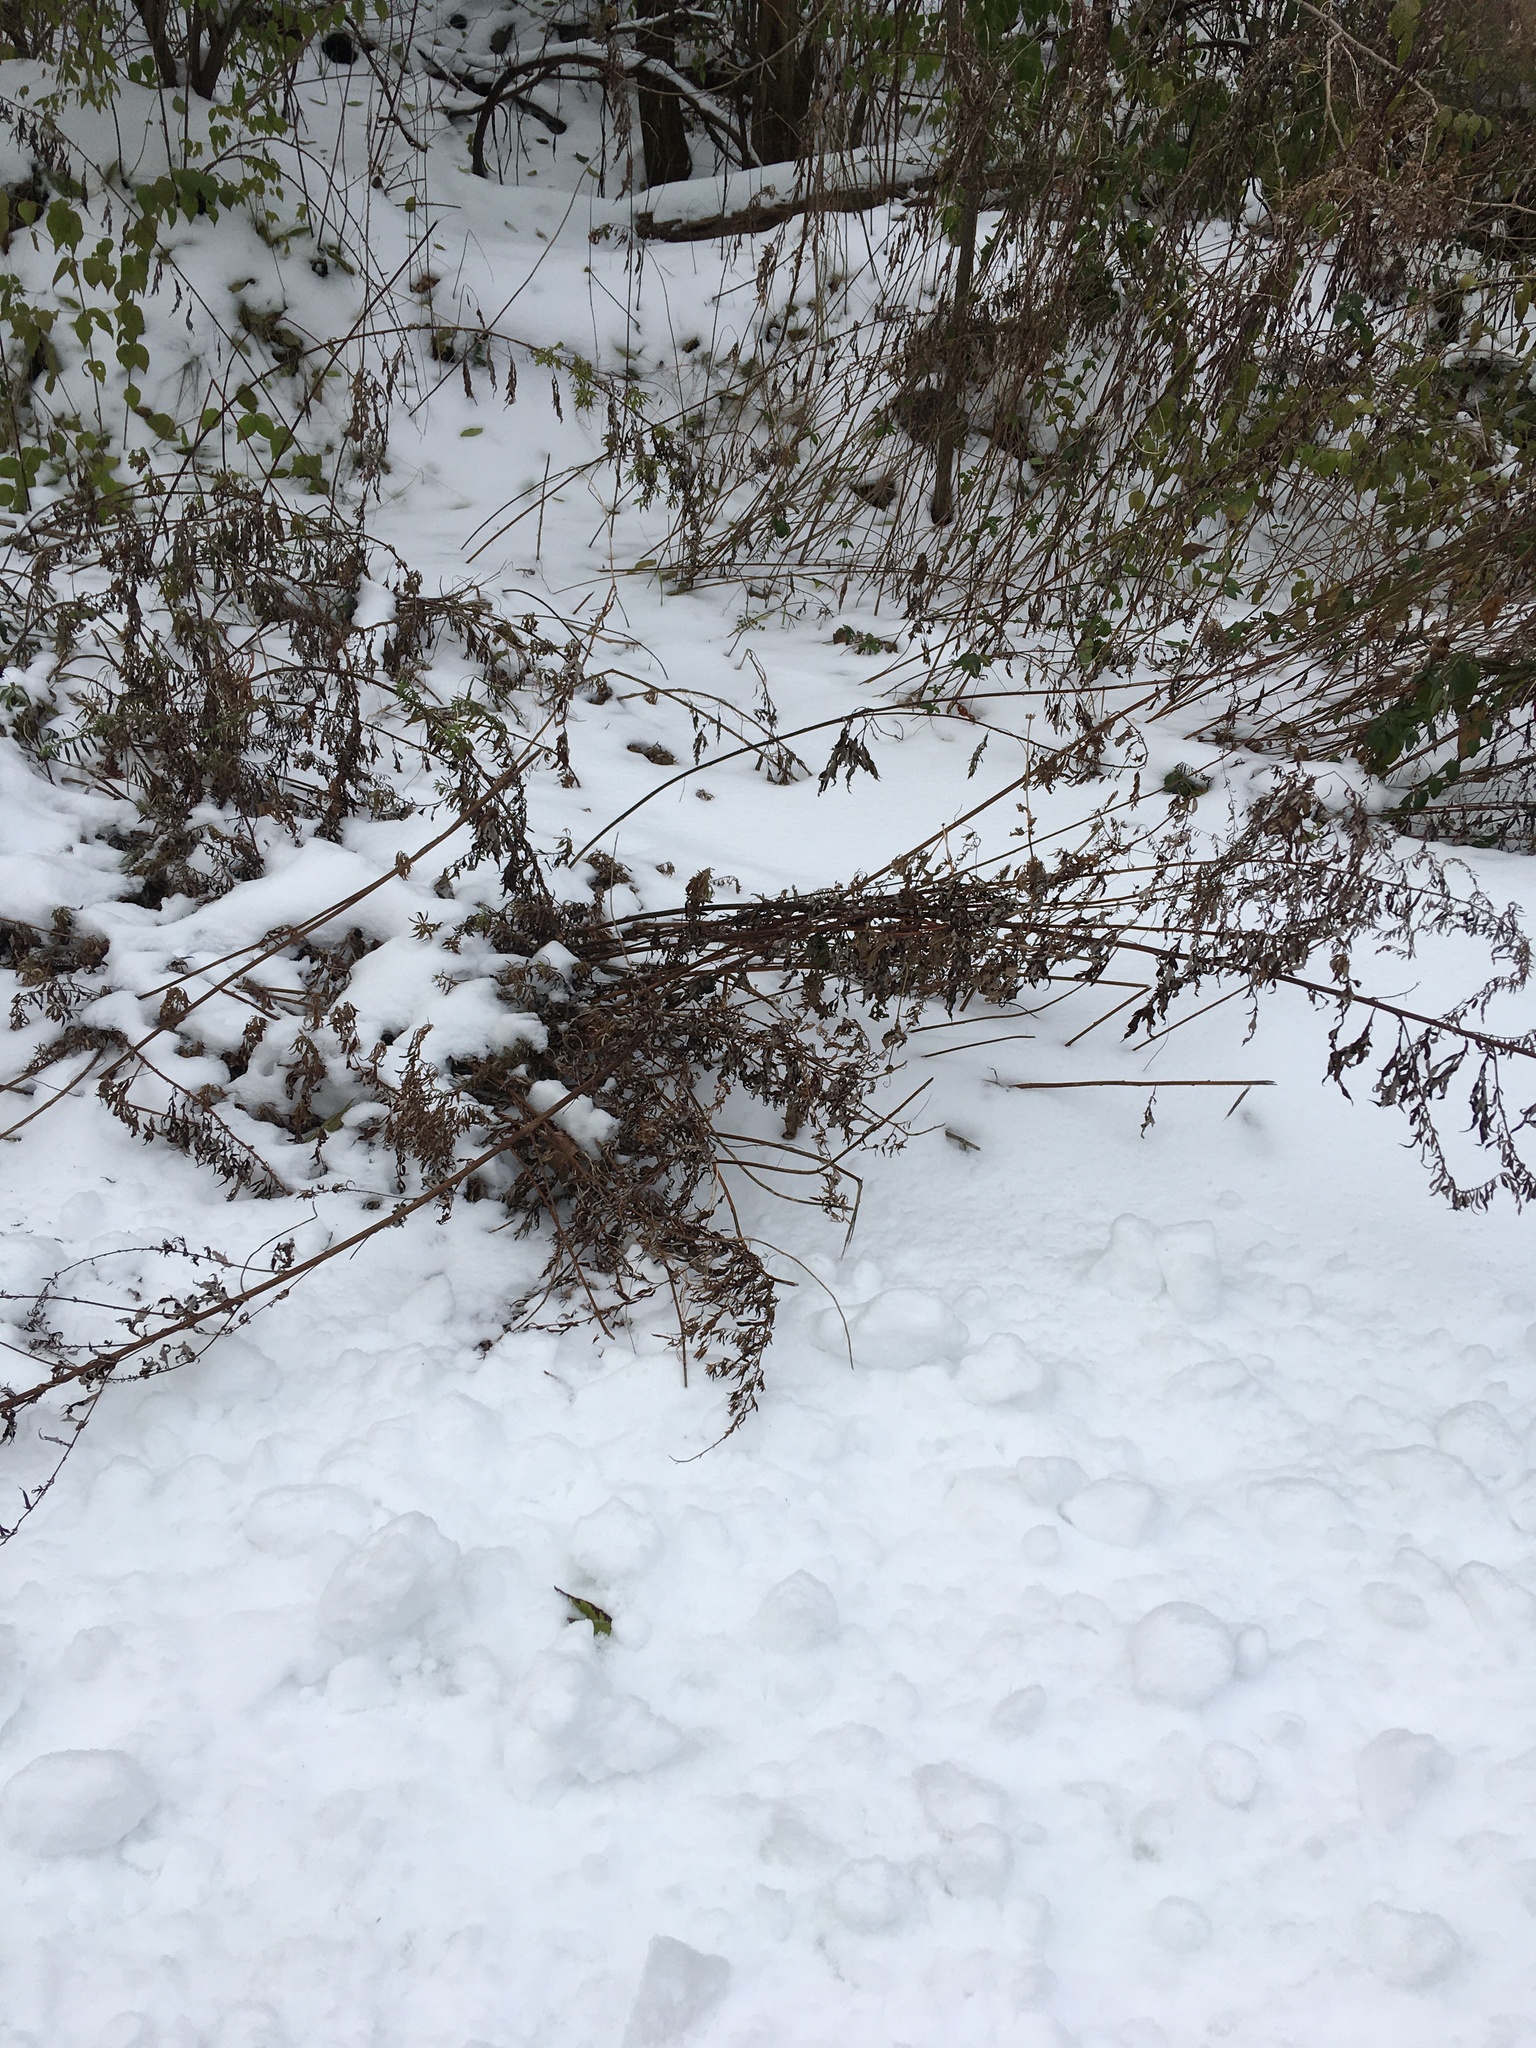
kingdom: Plantae
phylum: Tracheophyta
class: Magnoliopsida
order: Asterales
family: Asteraceae
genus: Artemisia
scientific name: Artemisia vulgaris
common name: Mugwort
